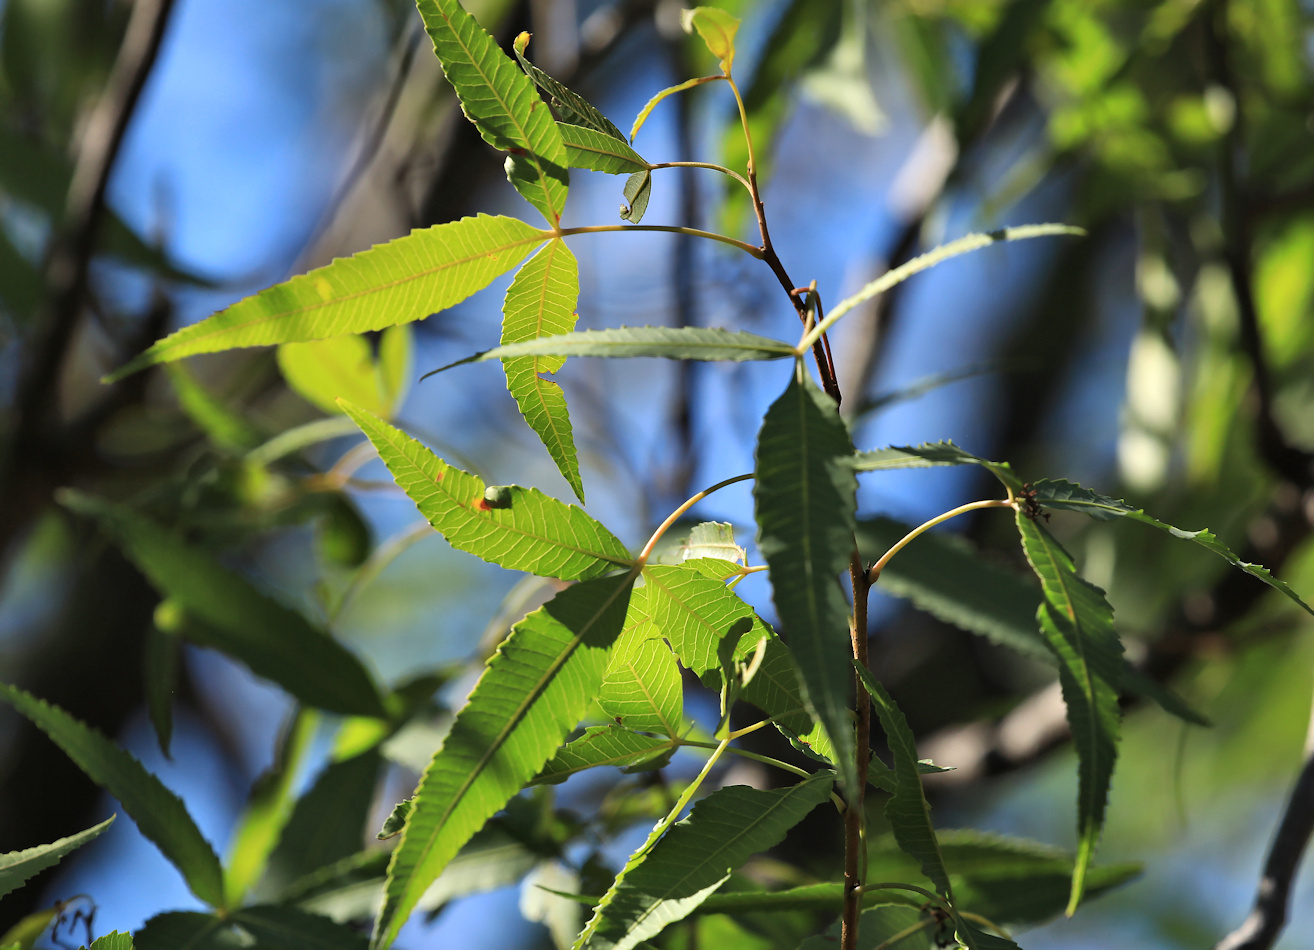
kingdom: Plantae
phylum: Tracheophyta
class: Magnoliopsida
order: Sapindales
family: Anacardiaceae
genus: Searsia
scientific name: Searsia leptodictya
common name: Mountain karee
